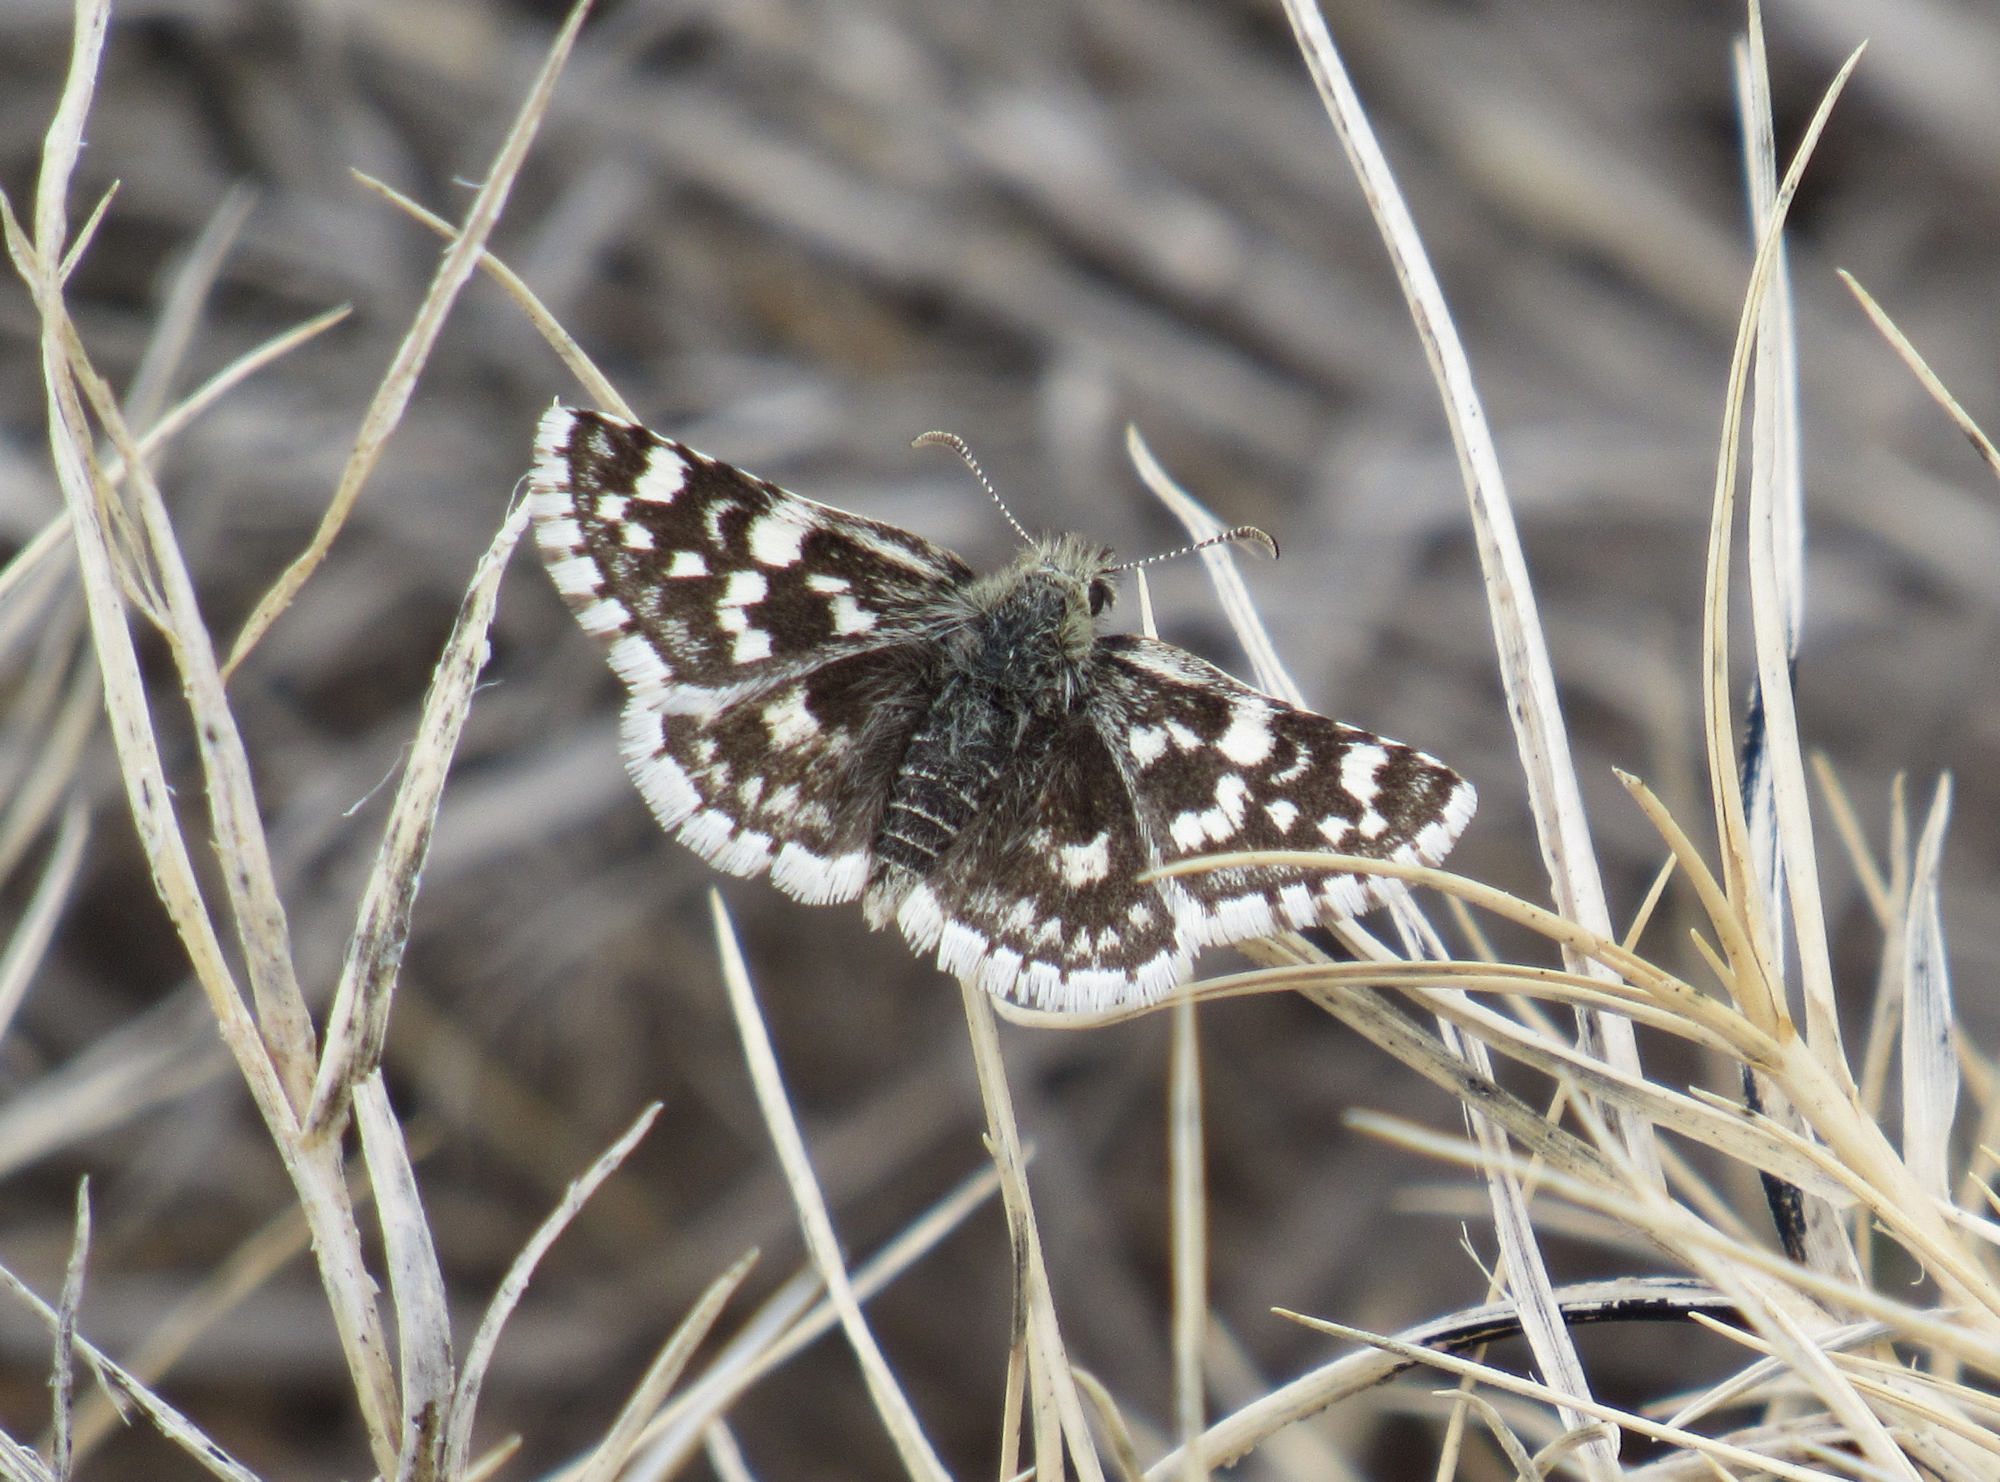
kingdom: Animalia
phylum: Arthropoda
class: Insecta
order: Lepidoptera
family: Hesperiidae
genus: Pyrgus
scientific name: Pyrgus scriptura
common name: Small checkered-skipper
